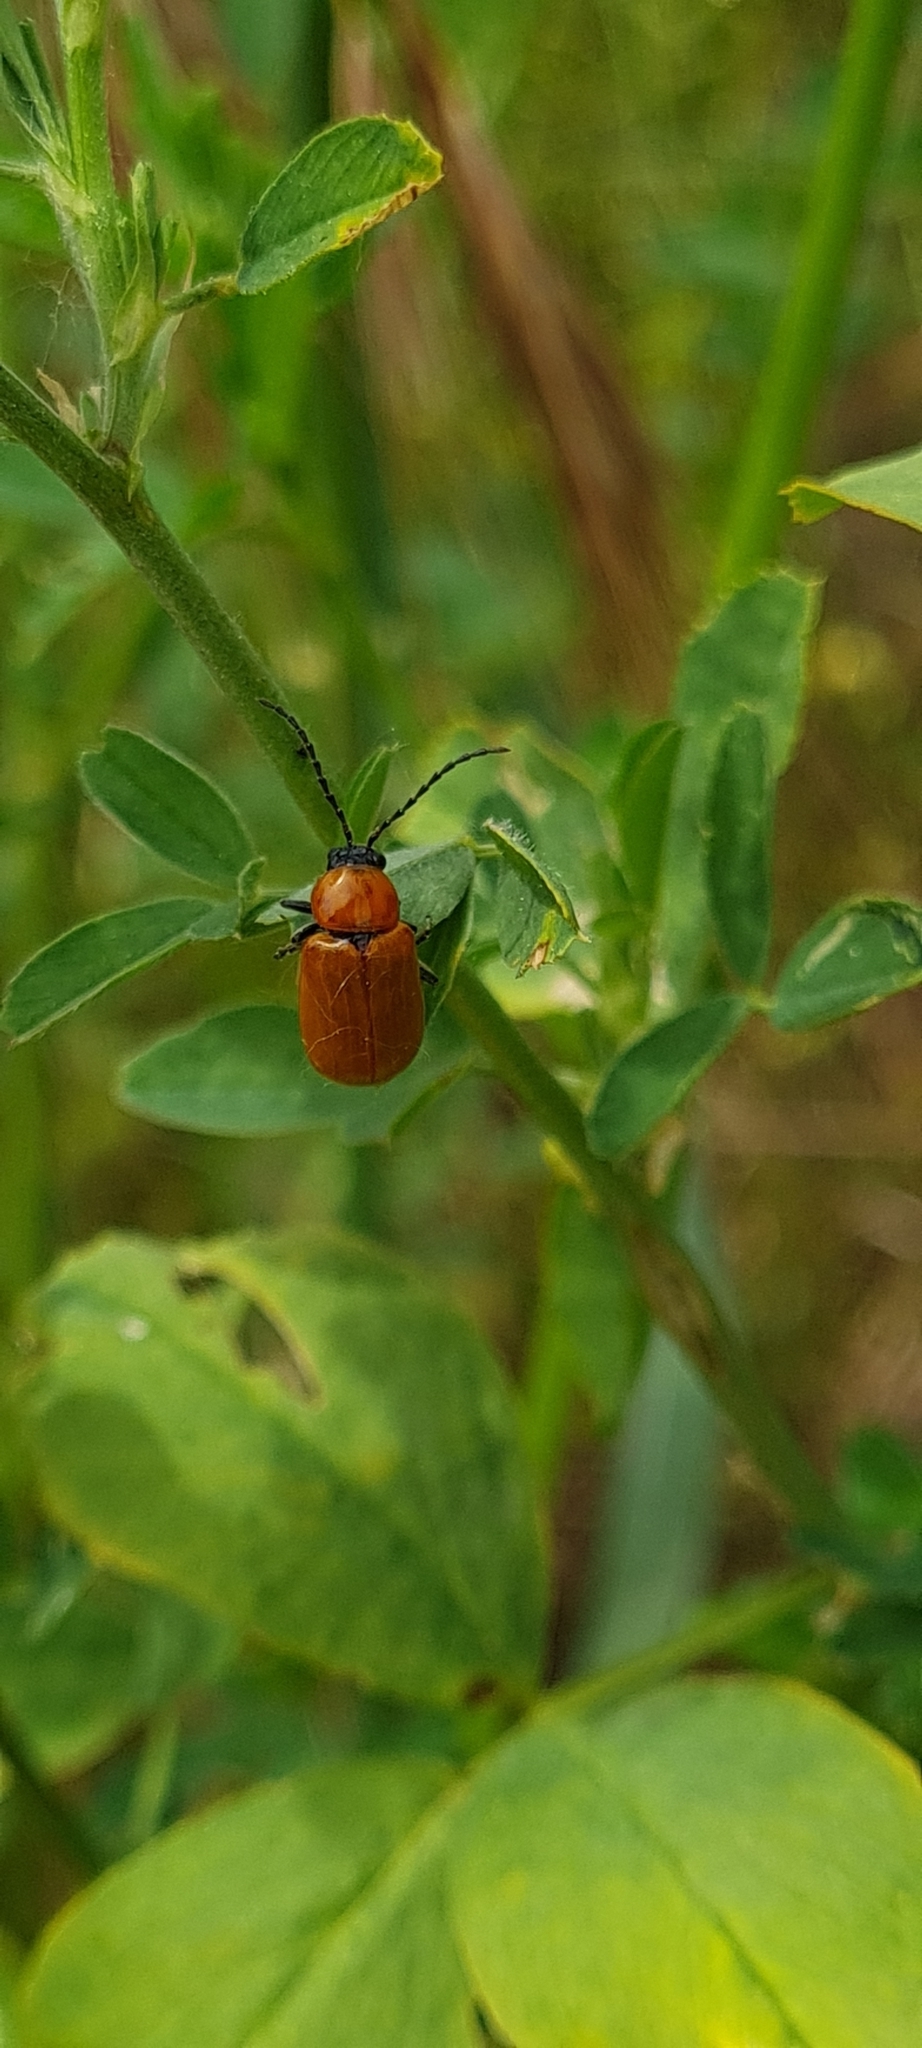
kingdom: Animalia
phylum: Arthropoda
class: Insecta
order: Coleoptera
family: Chrysomelidae
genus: Exosoma
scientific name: Exosoma lusitanicum
